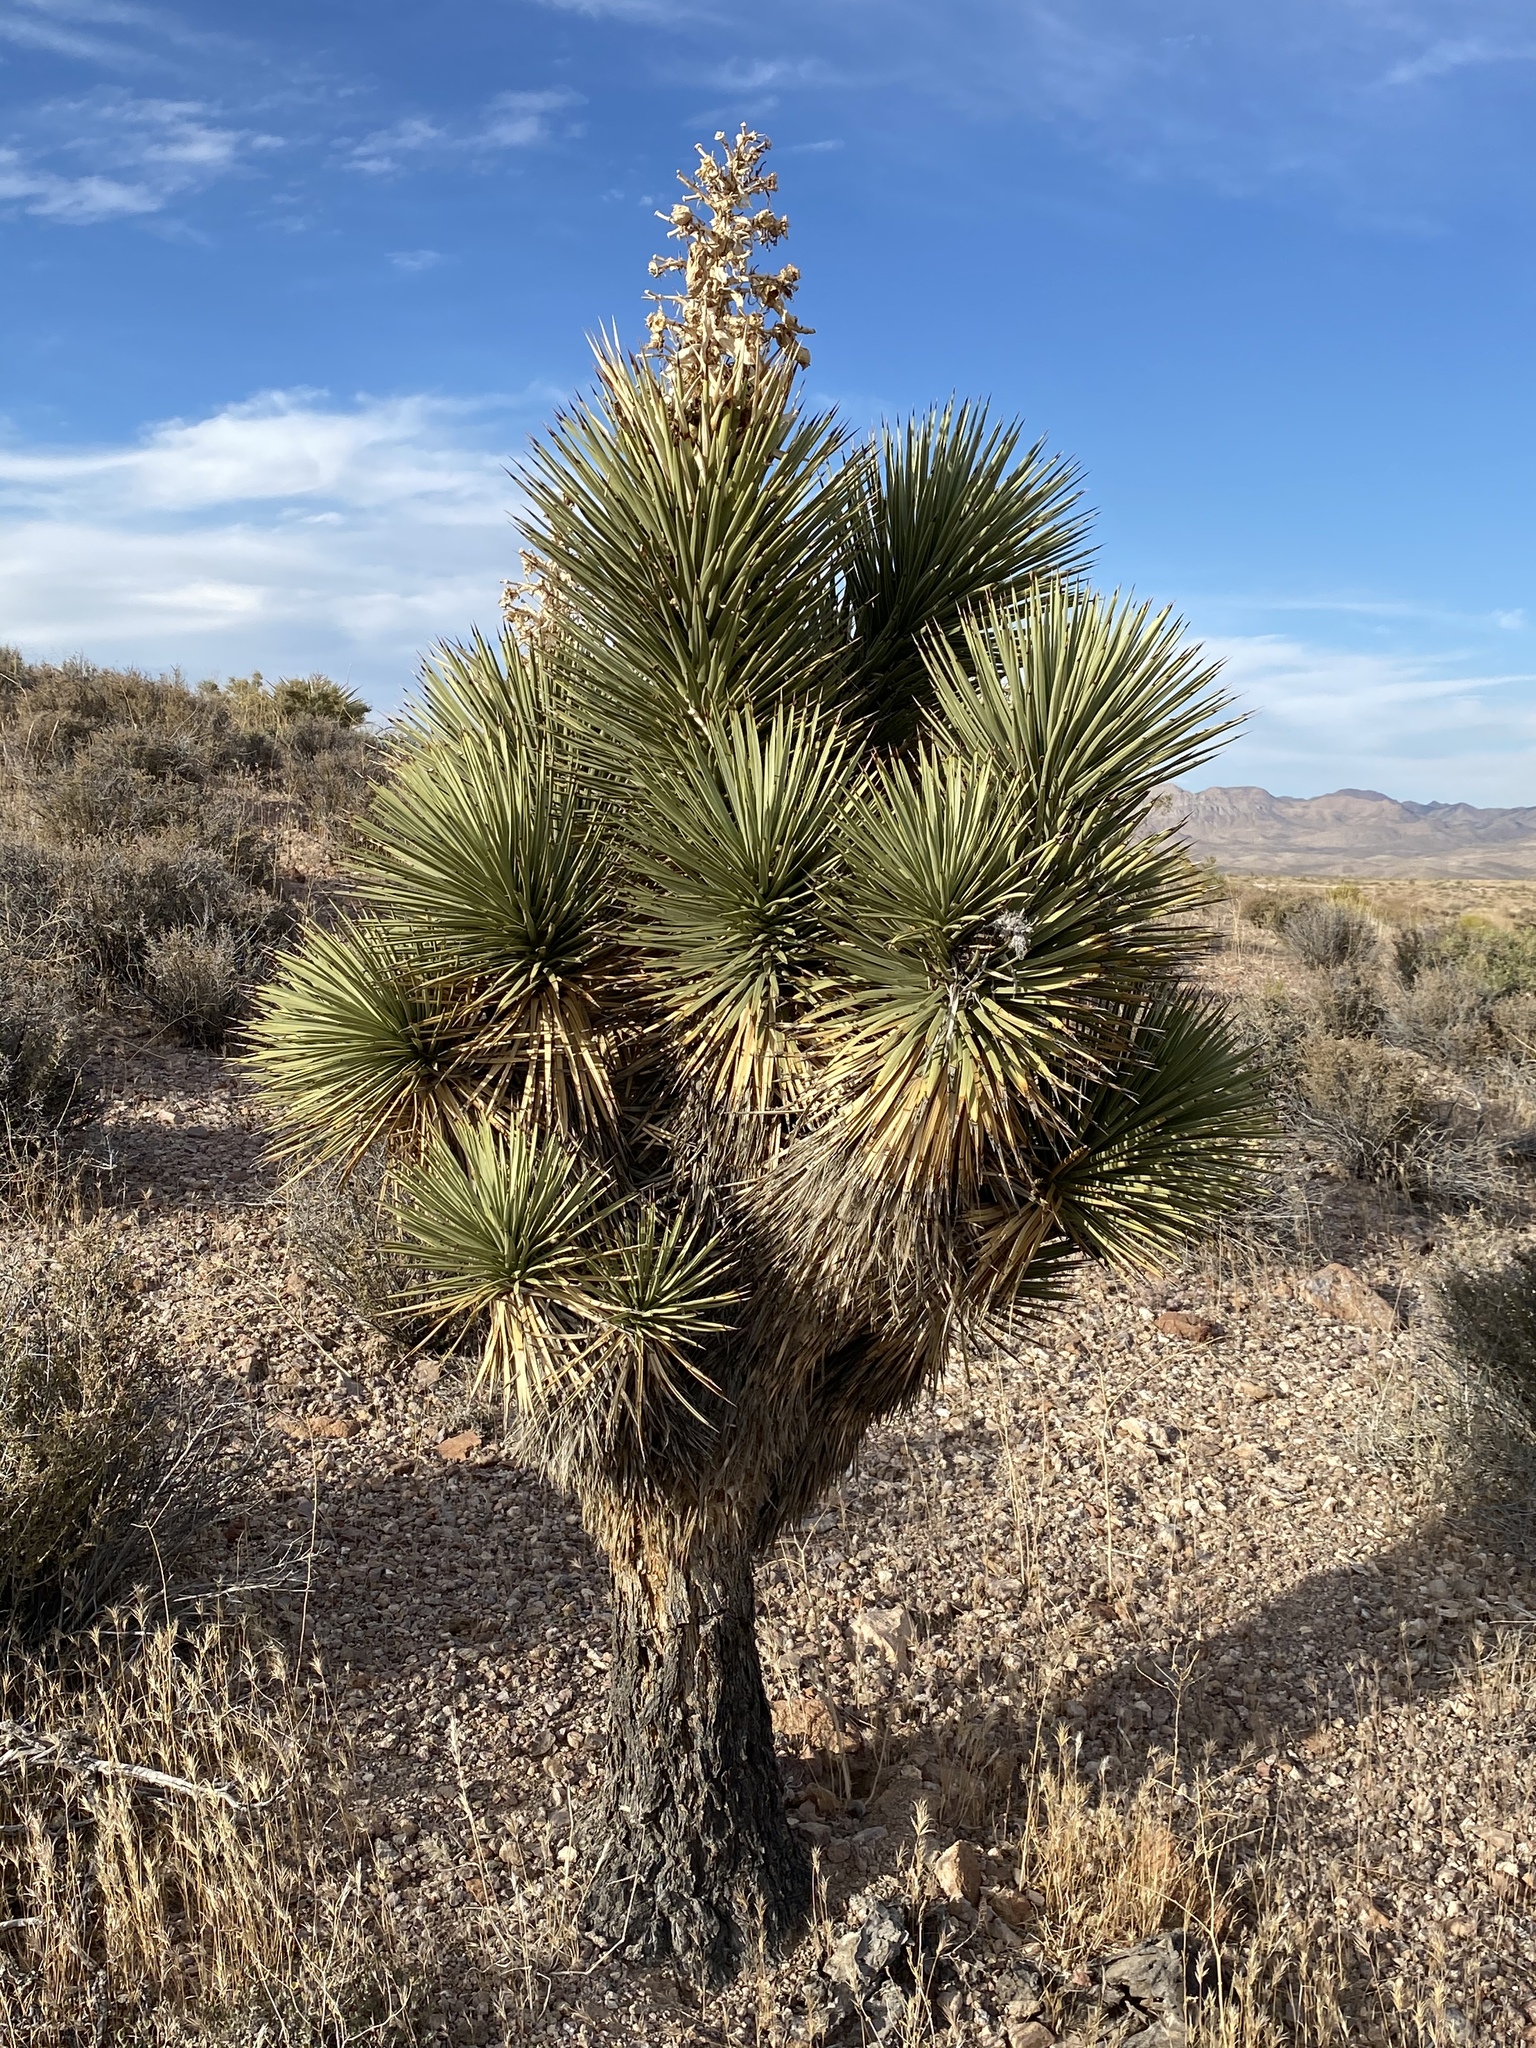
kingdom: Plantae
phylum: Tracheophyta
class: Liliopsida
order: Asparagales
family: Asparagaceae
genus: Yucca
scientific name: Yucca brevifolia
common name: Joshua tree
